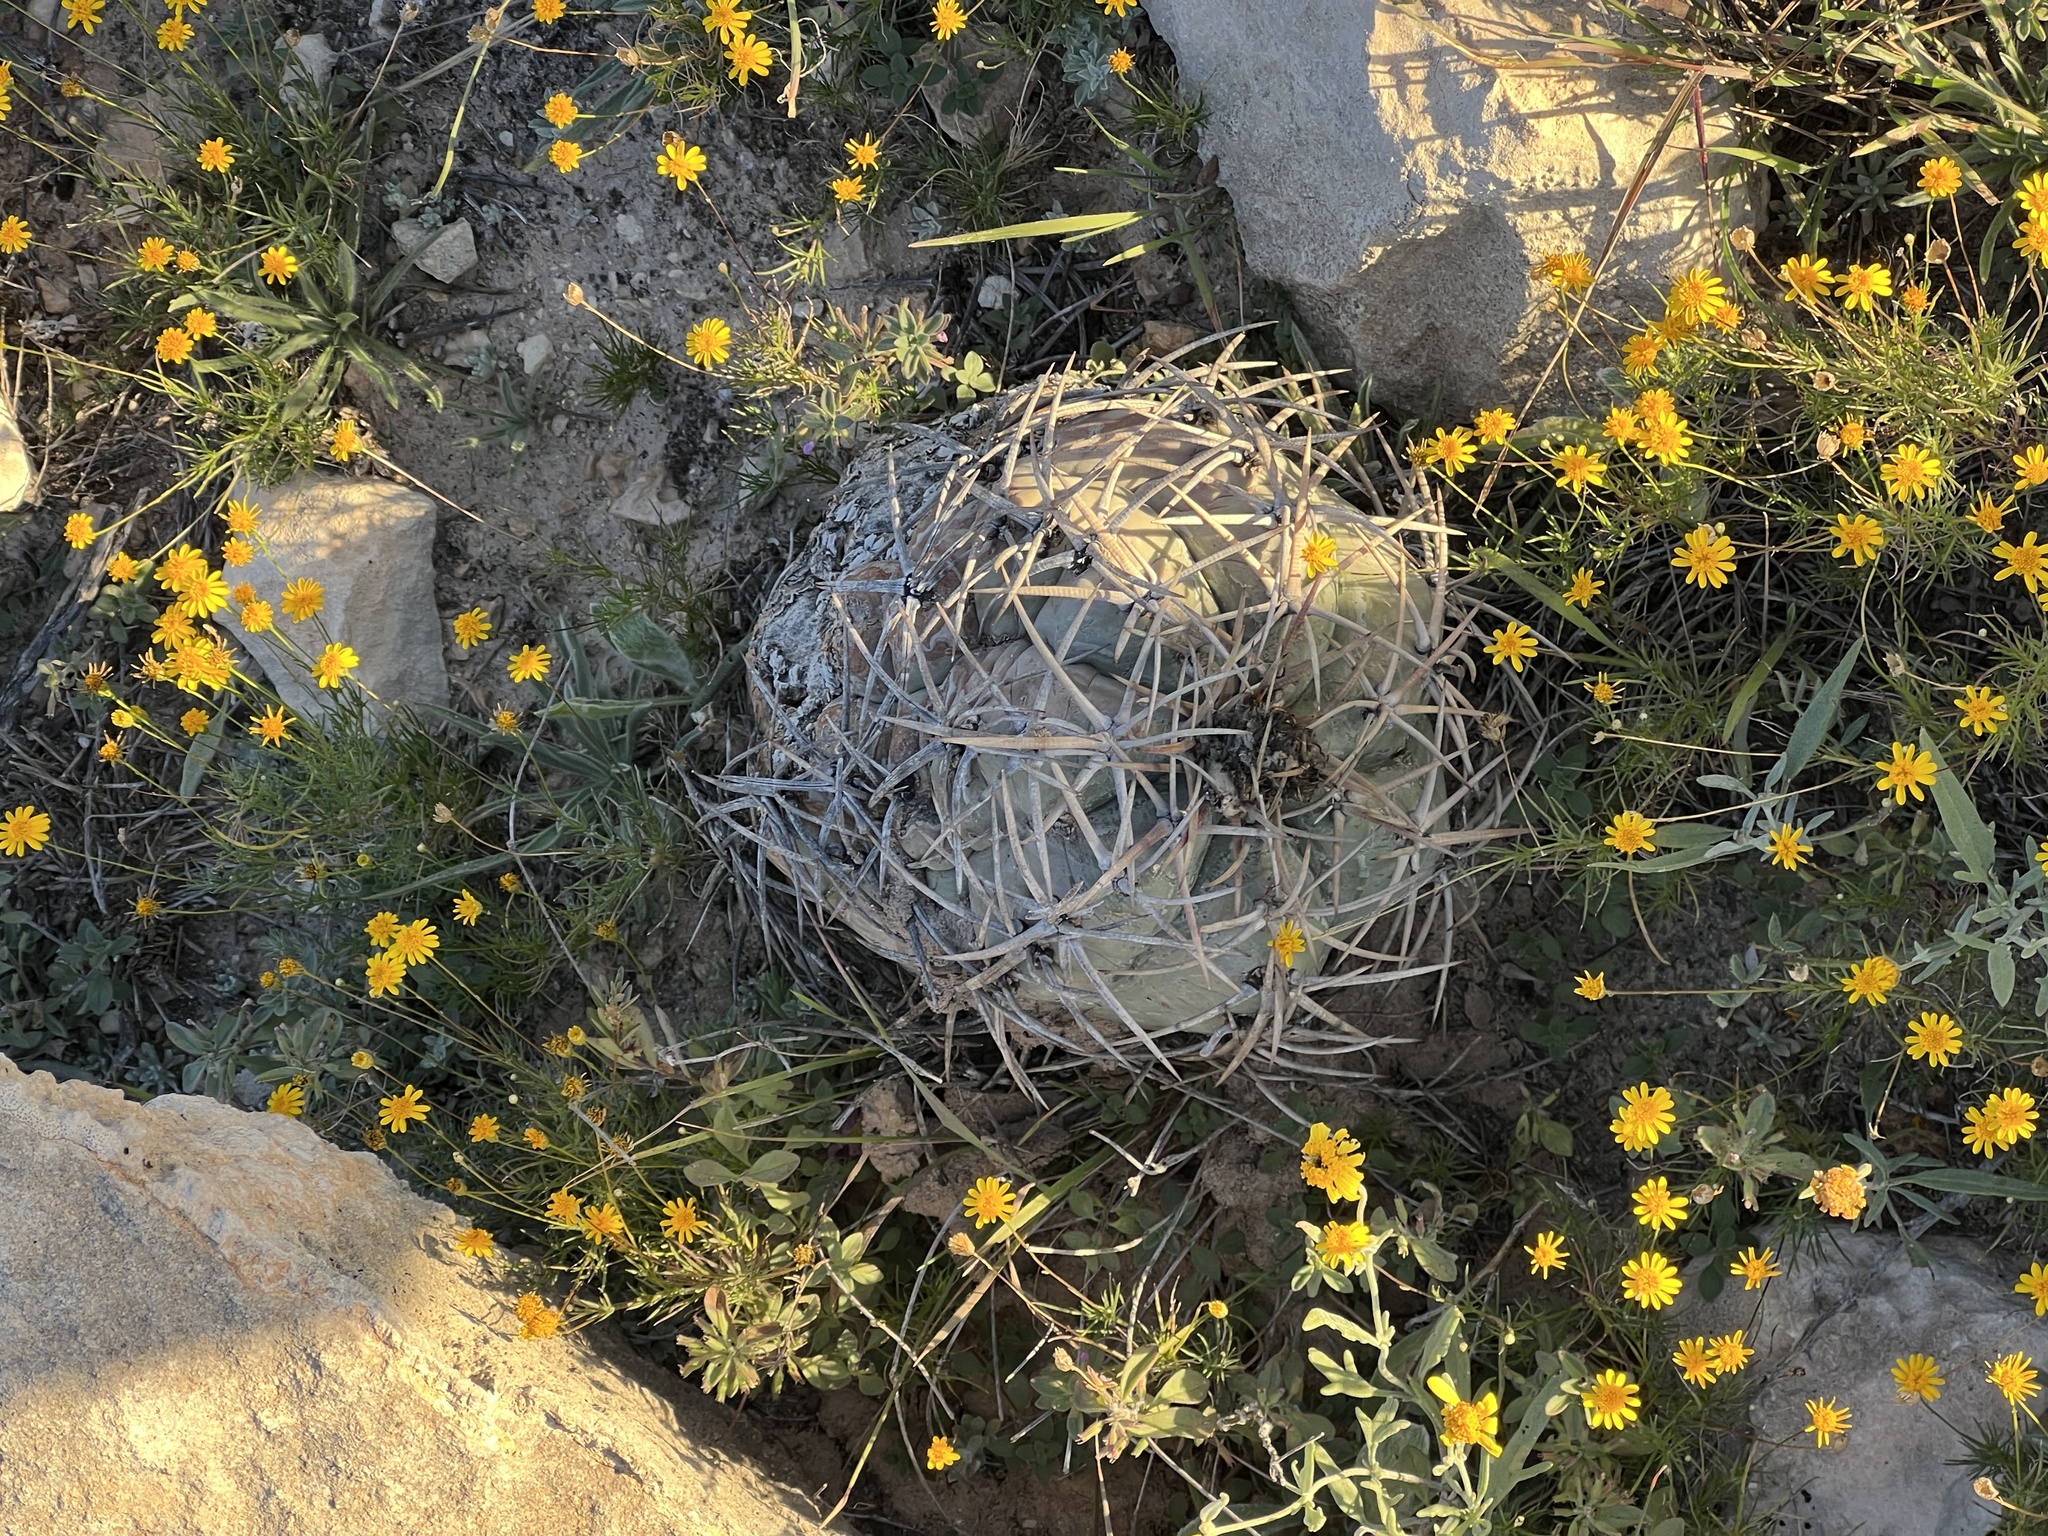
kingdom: Plantae
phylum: Tracheophyta
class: Magnoliopsida
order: Caryophyllales
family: Cactaceae
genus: Echinocactus
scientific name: Echinocactus horizonthalonius
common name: Devilshead
